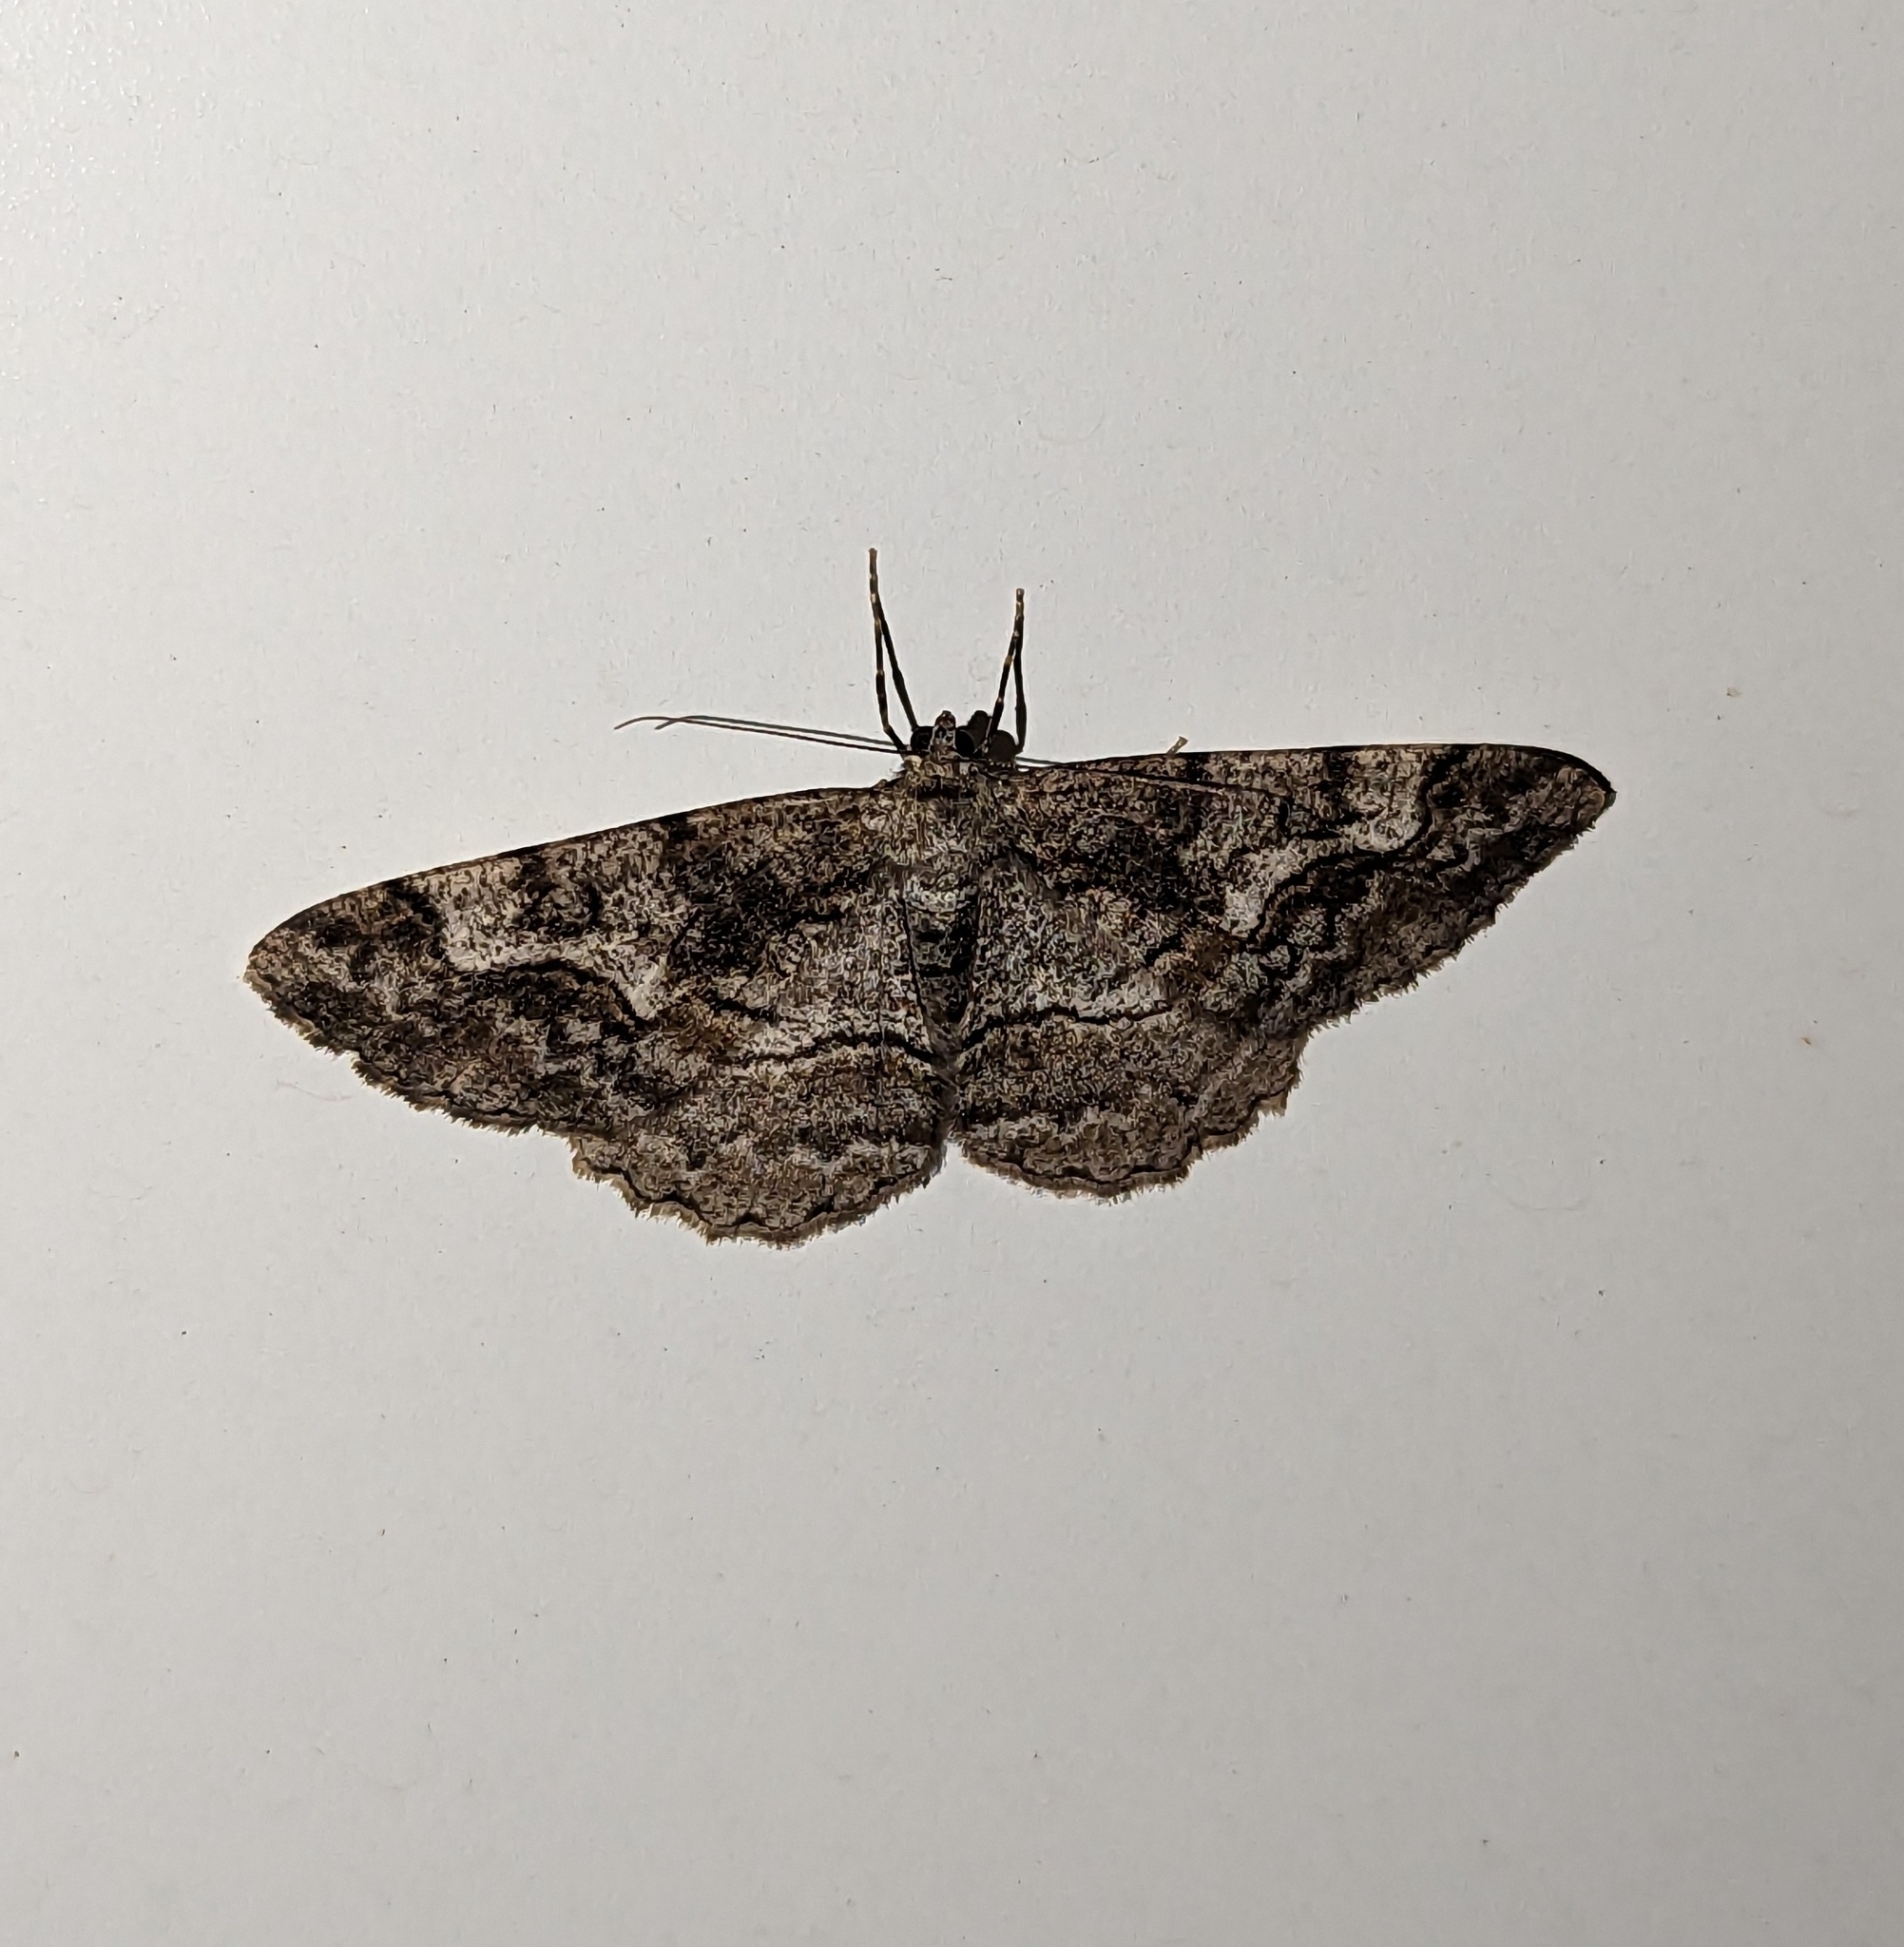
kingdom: Animalia
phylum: Arthropoda
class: Insecta
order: Lepidoptera
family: Geometridae
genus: Alcis
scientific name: Alcis repandata
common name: Mottled beauty
